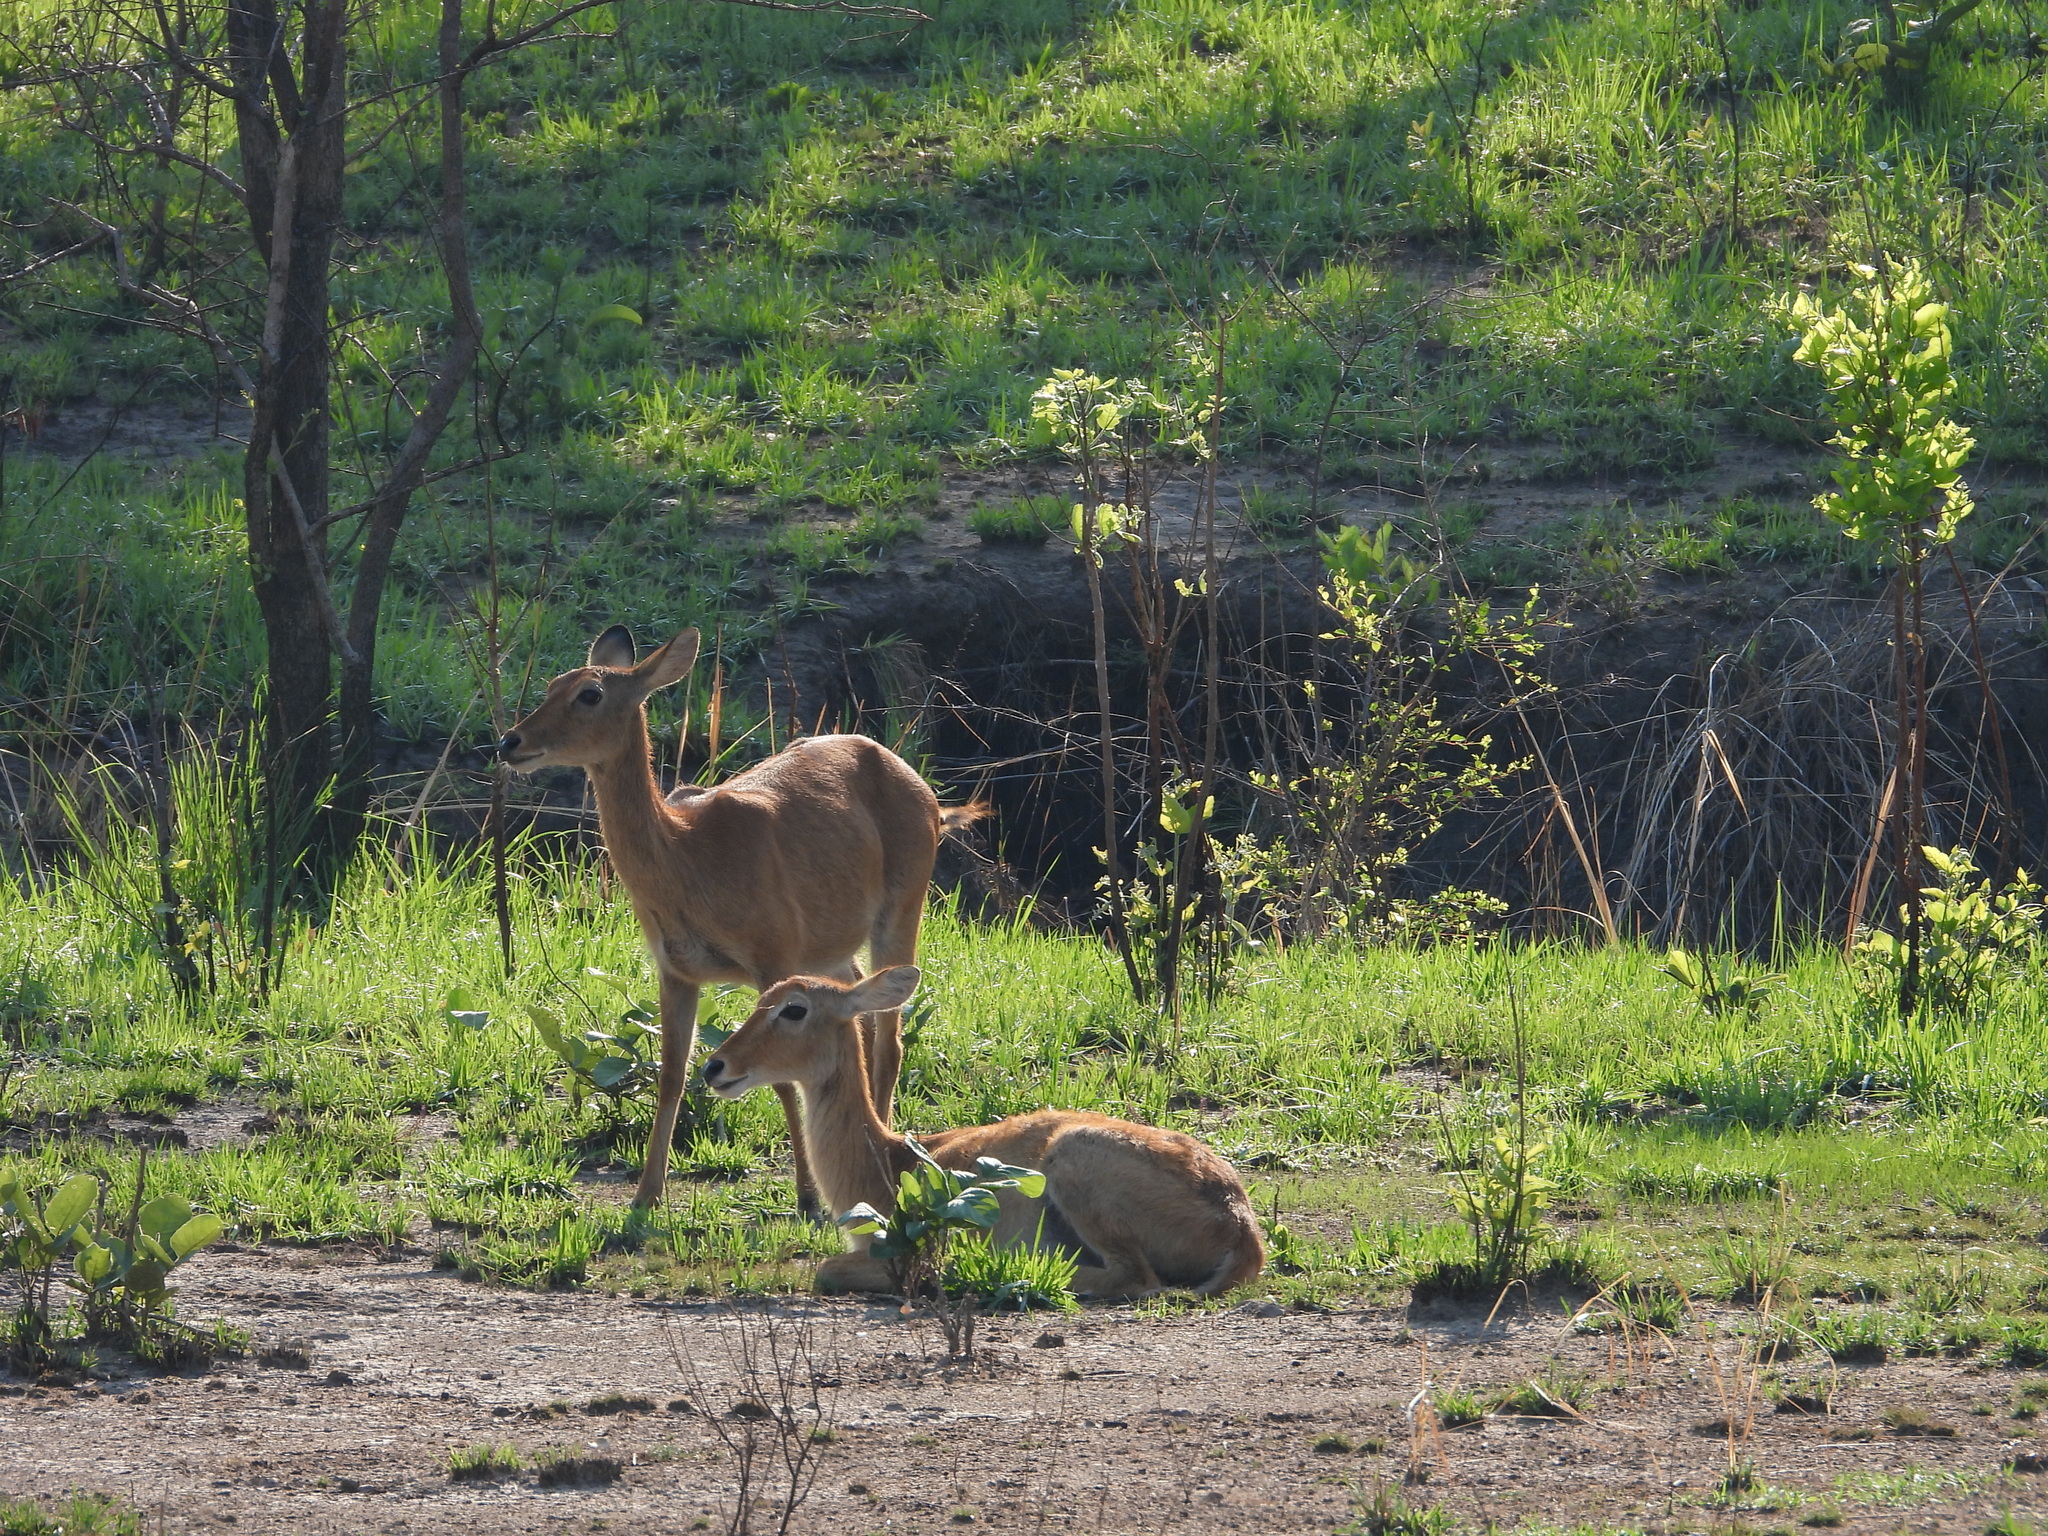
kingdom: Animalia
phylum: Chordata
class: Mammalia
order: Artiodactyla
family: Bovidae
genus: Kobus
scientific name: Kobus vardonii
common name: Puku
